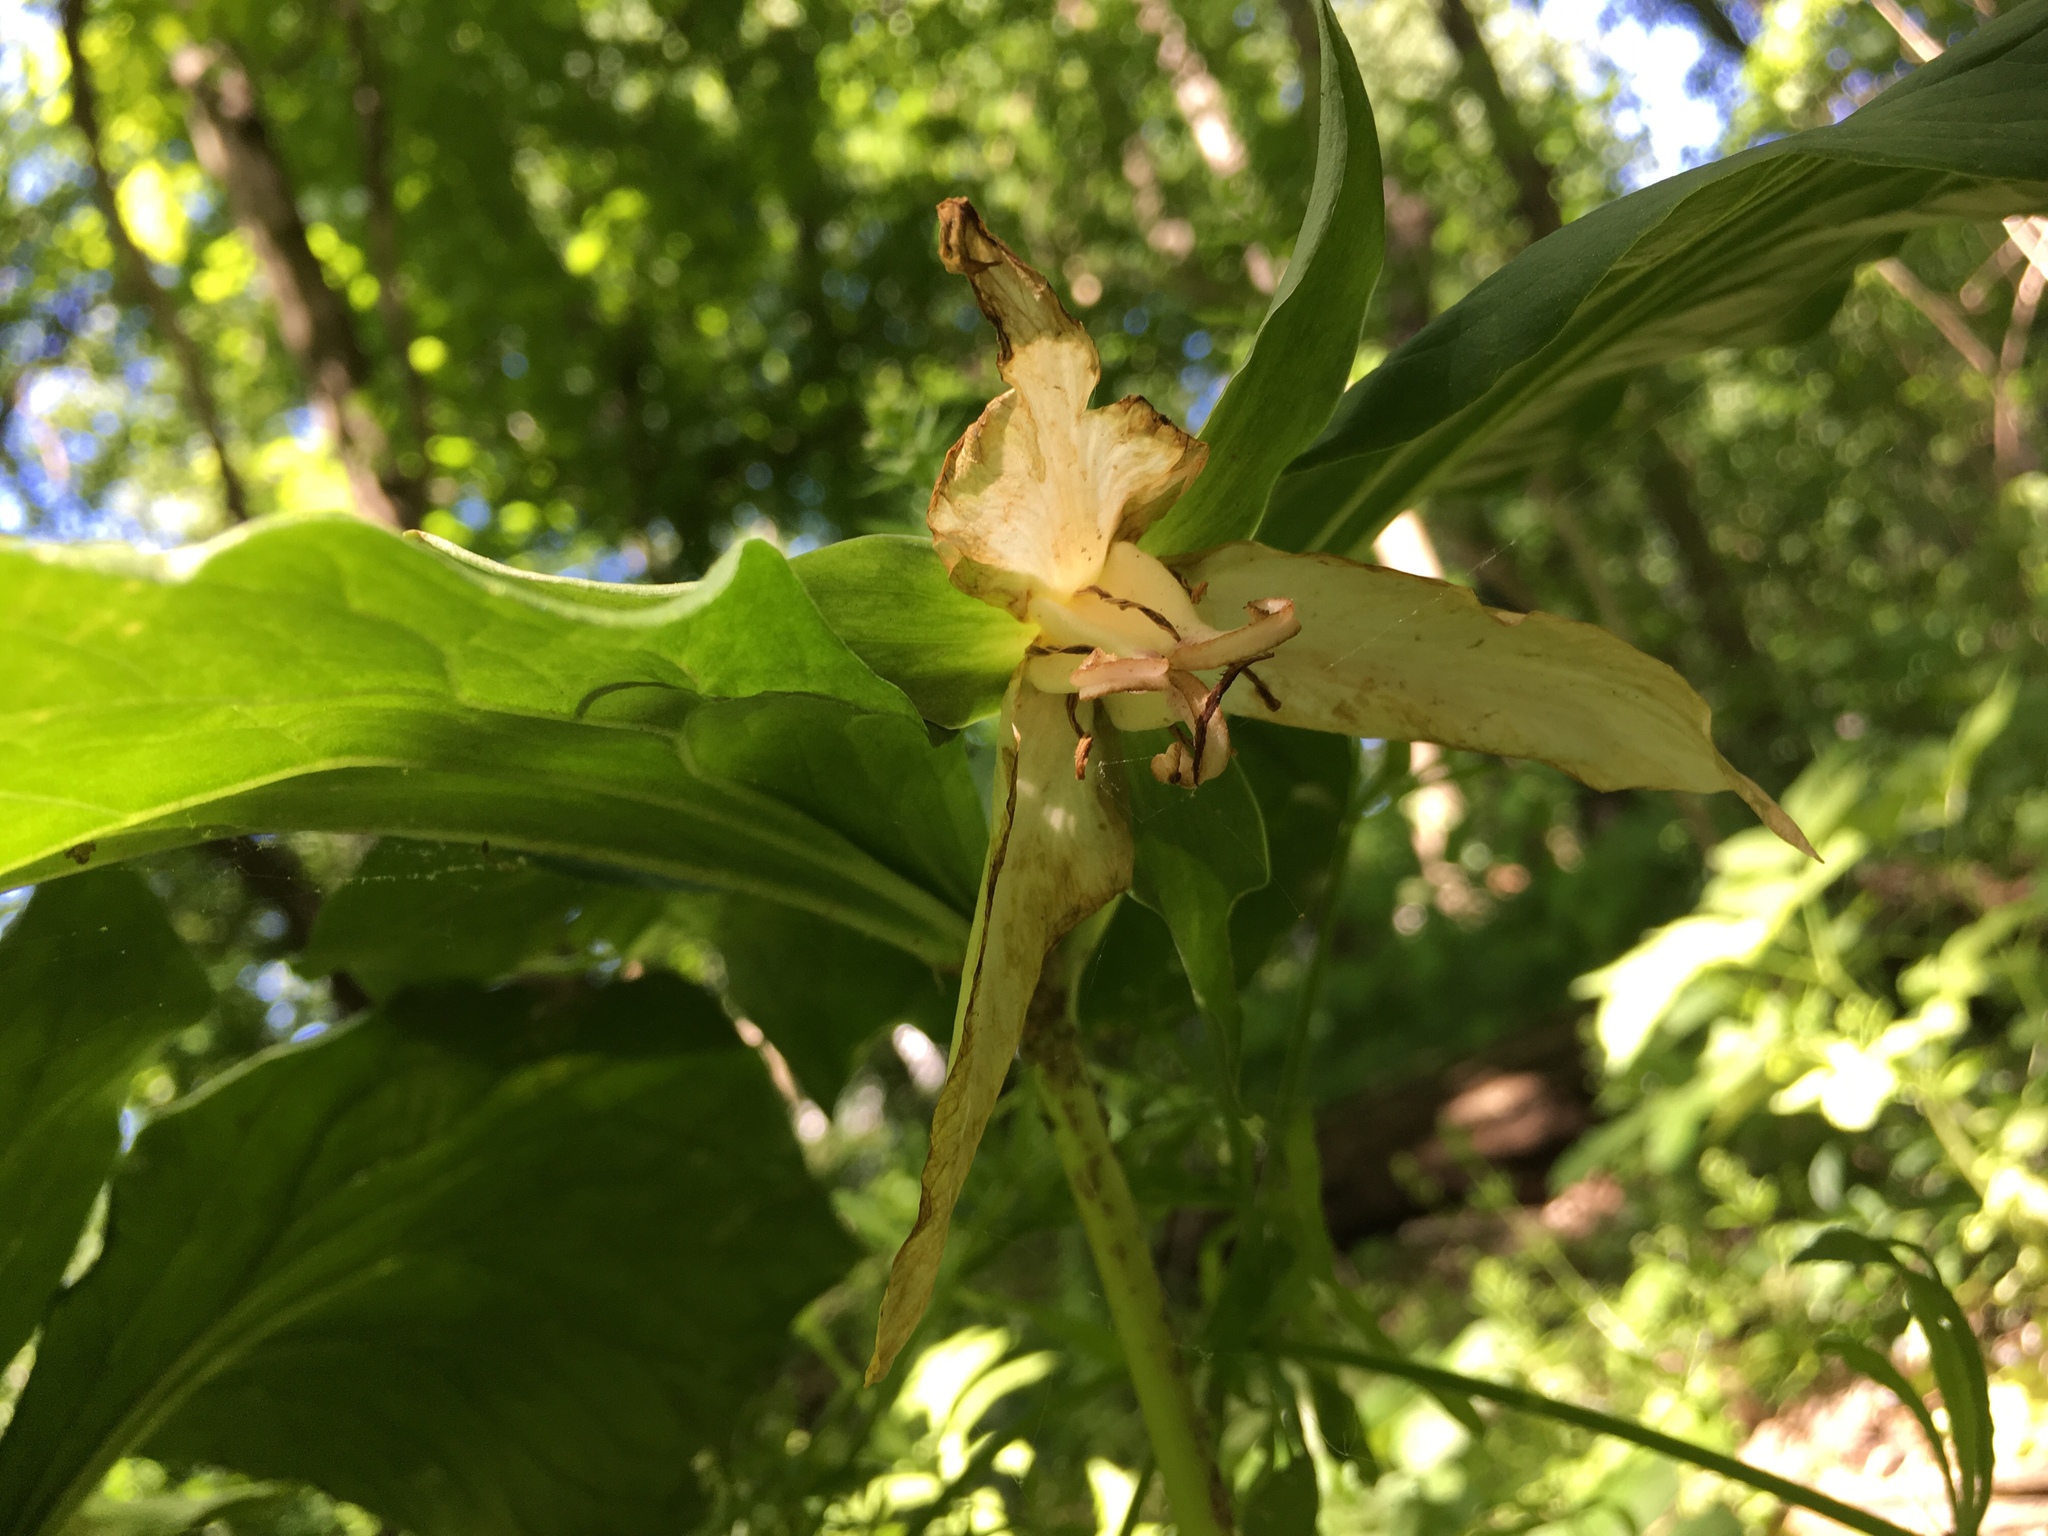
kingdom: Plantae
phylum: Tracheophyta
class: Liliopsida
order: Liliales
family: Melanthiaceae
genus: Trillium
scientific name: Trillium flexipes
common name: Drooping trillium
